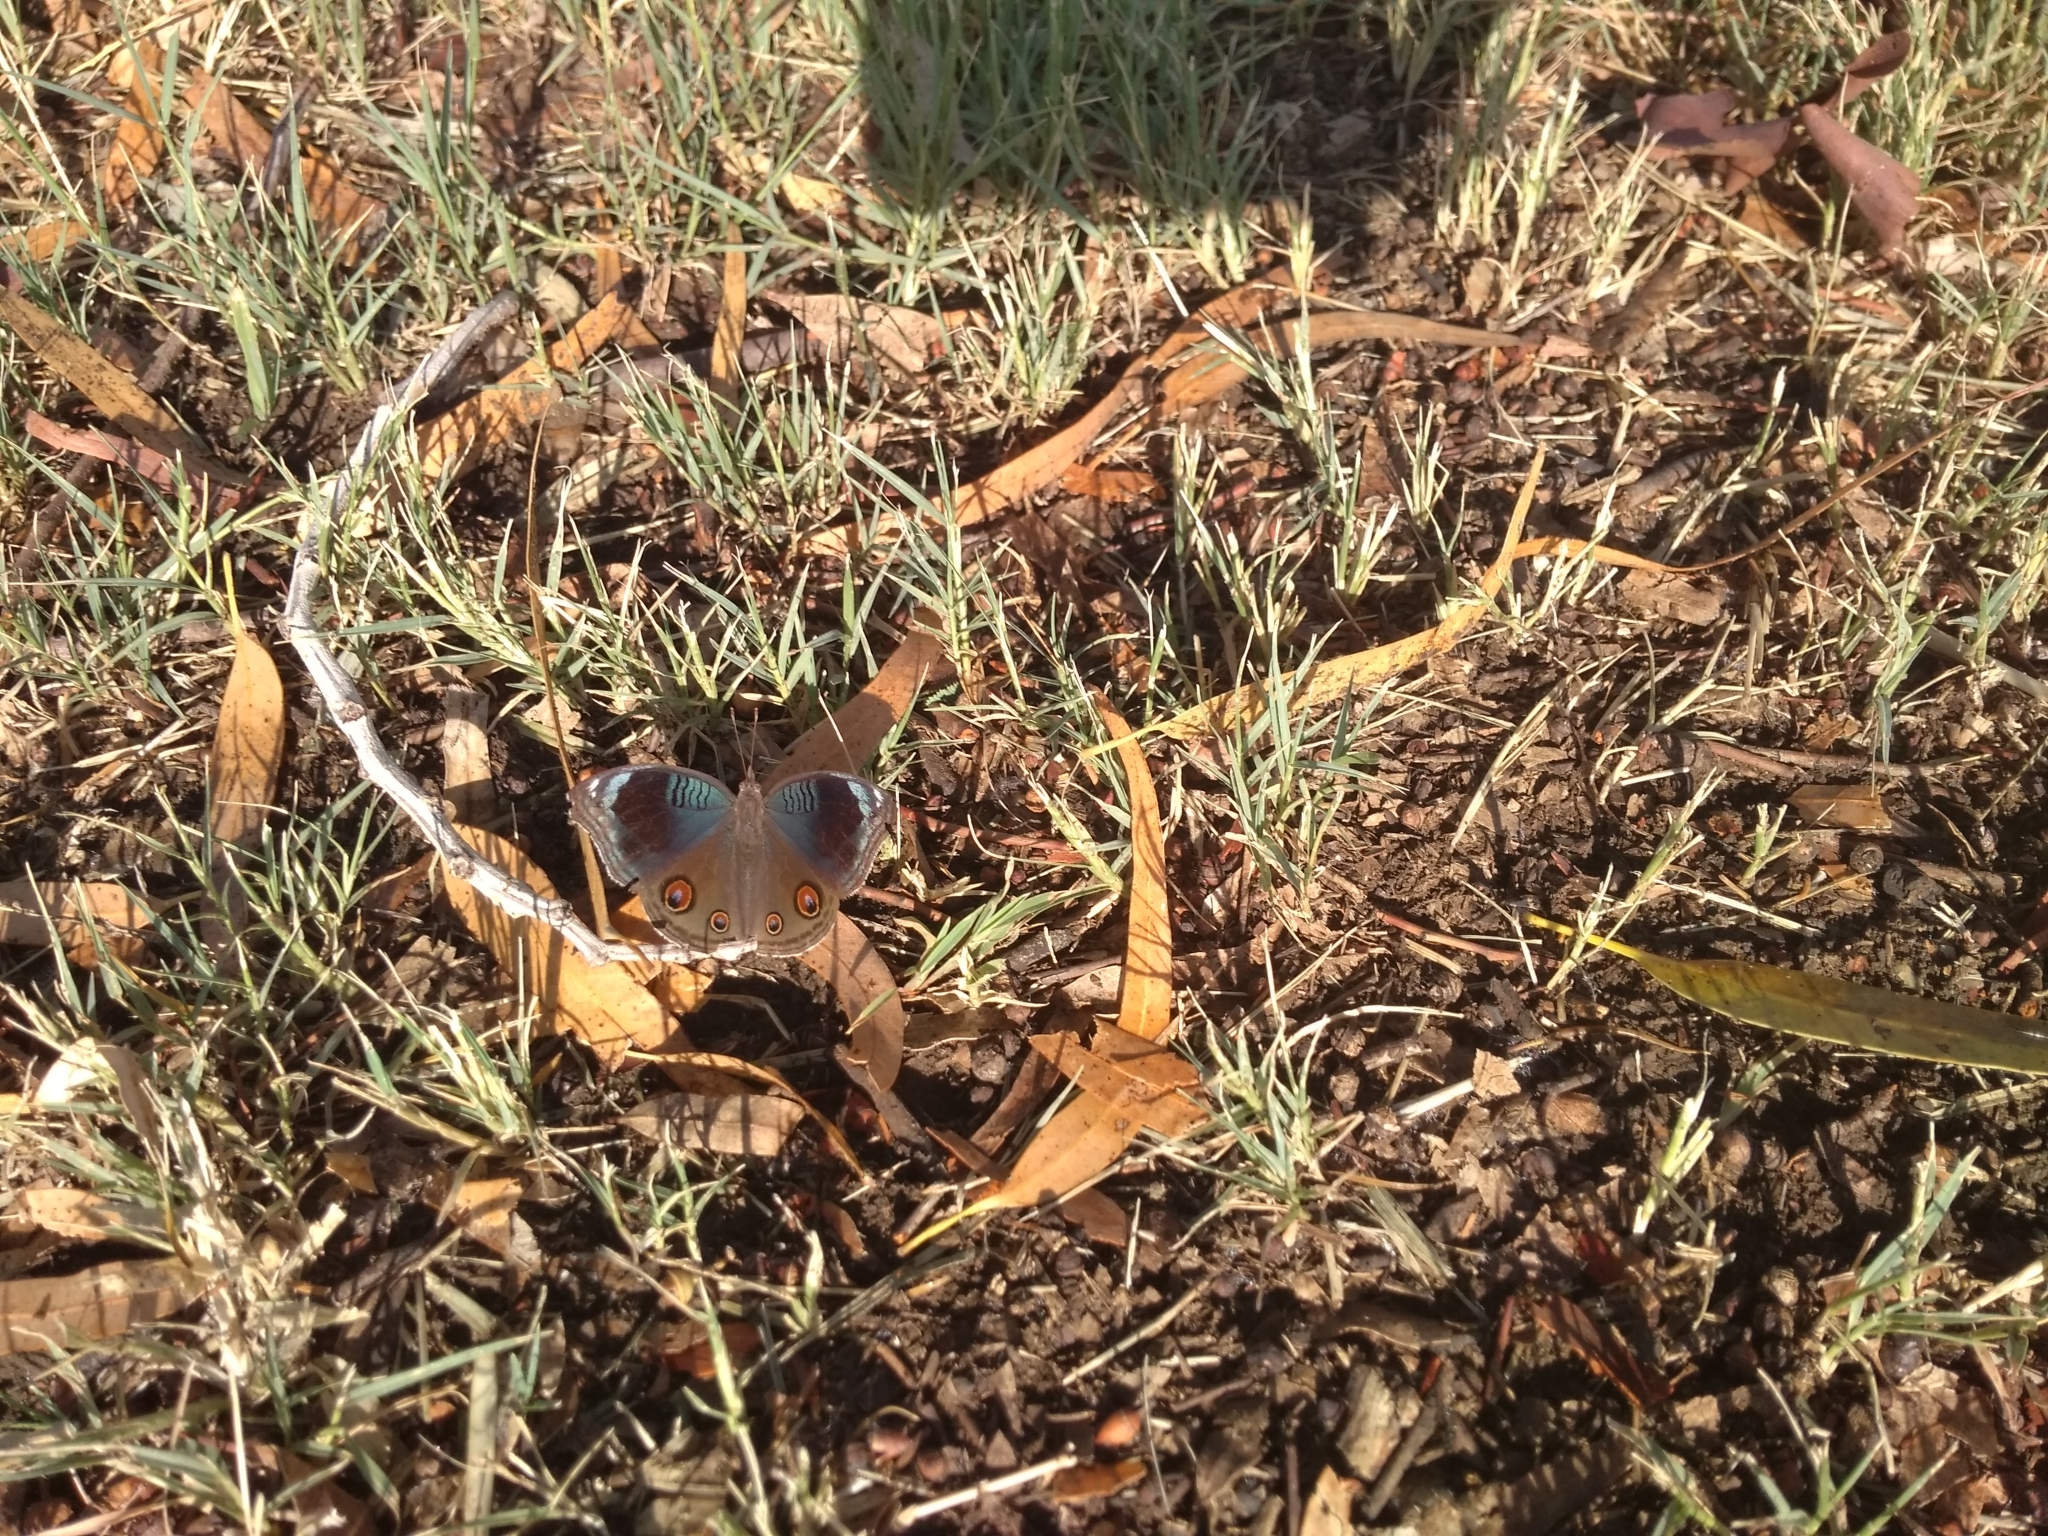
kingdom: Animalia
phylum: Arthropoda
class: Insecta
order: Lepidoptera
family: Nymphalidae
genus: Junonia
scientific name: Junonia artaxia
